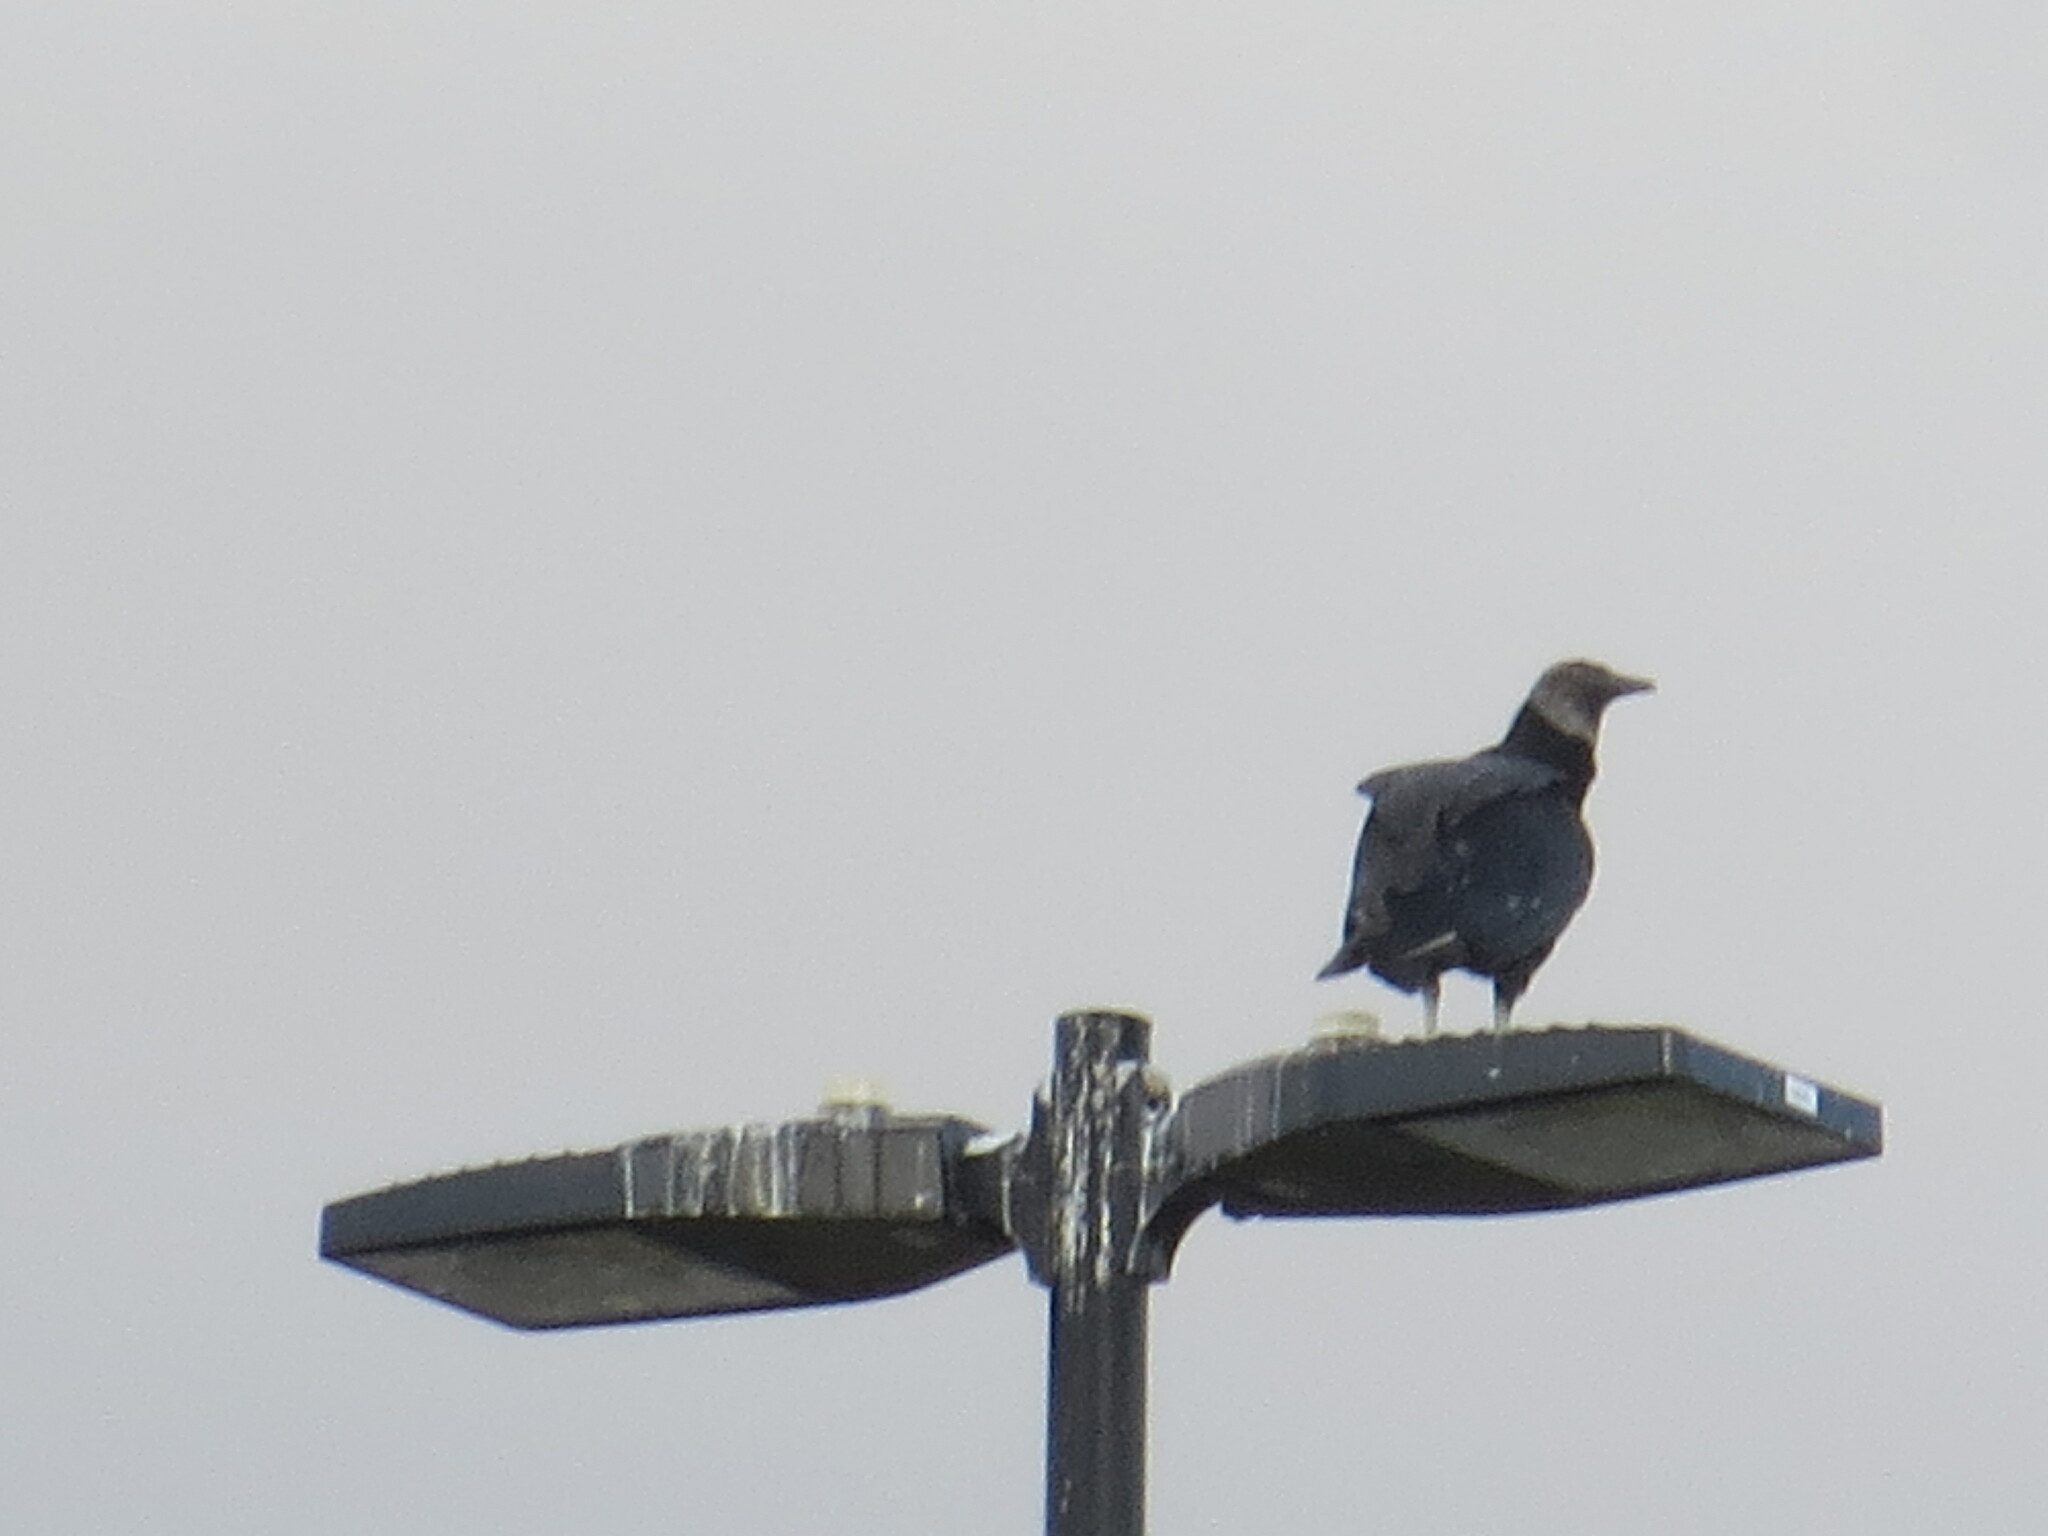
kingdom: Animalia
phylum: Chordata
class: Aves
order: Accipitriformes
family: Cathartidae
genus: Coragyps
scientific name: Coragyps atratus
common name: Black vulture
